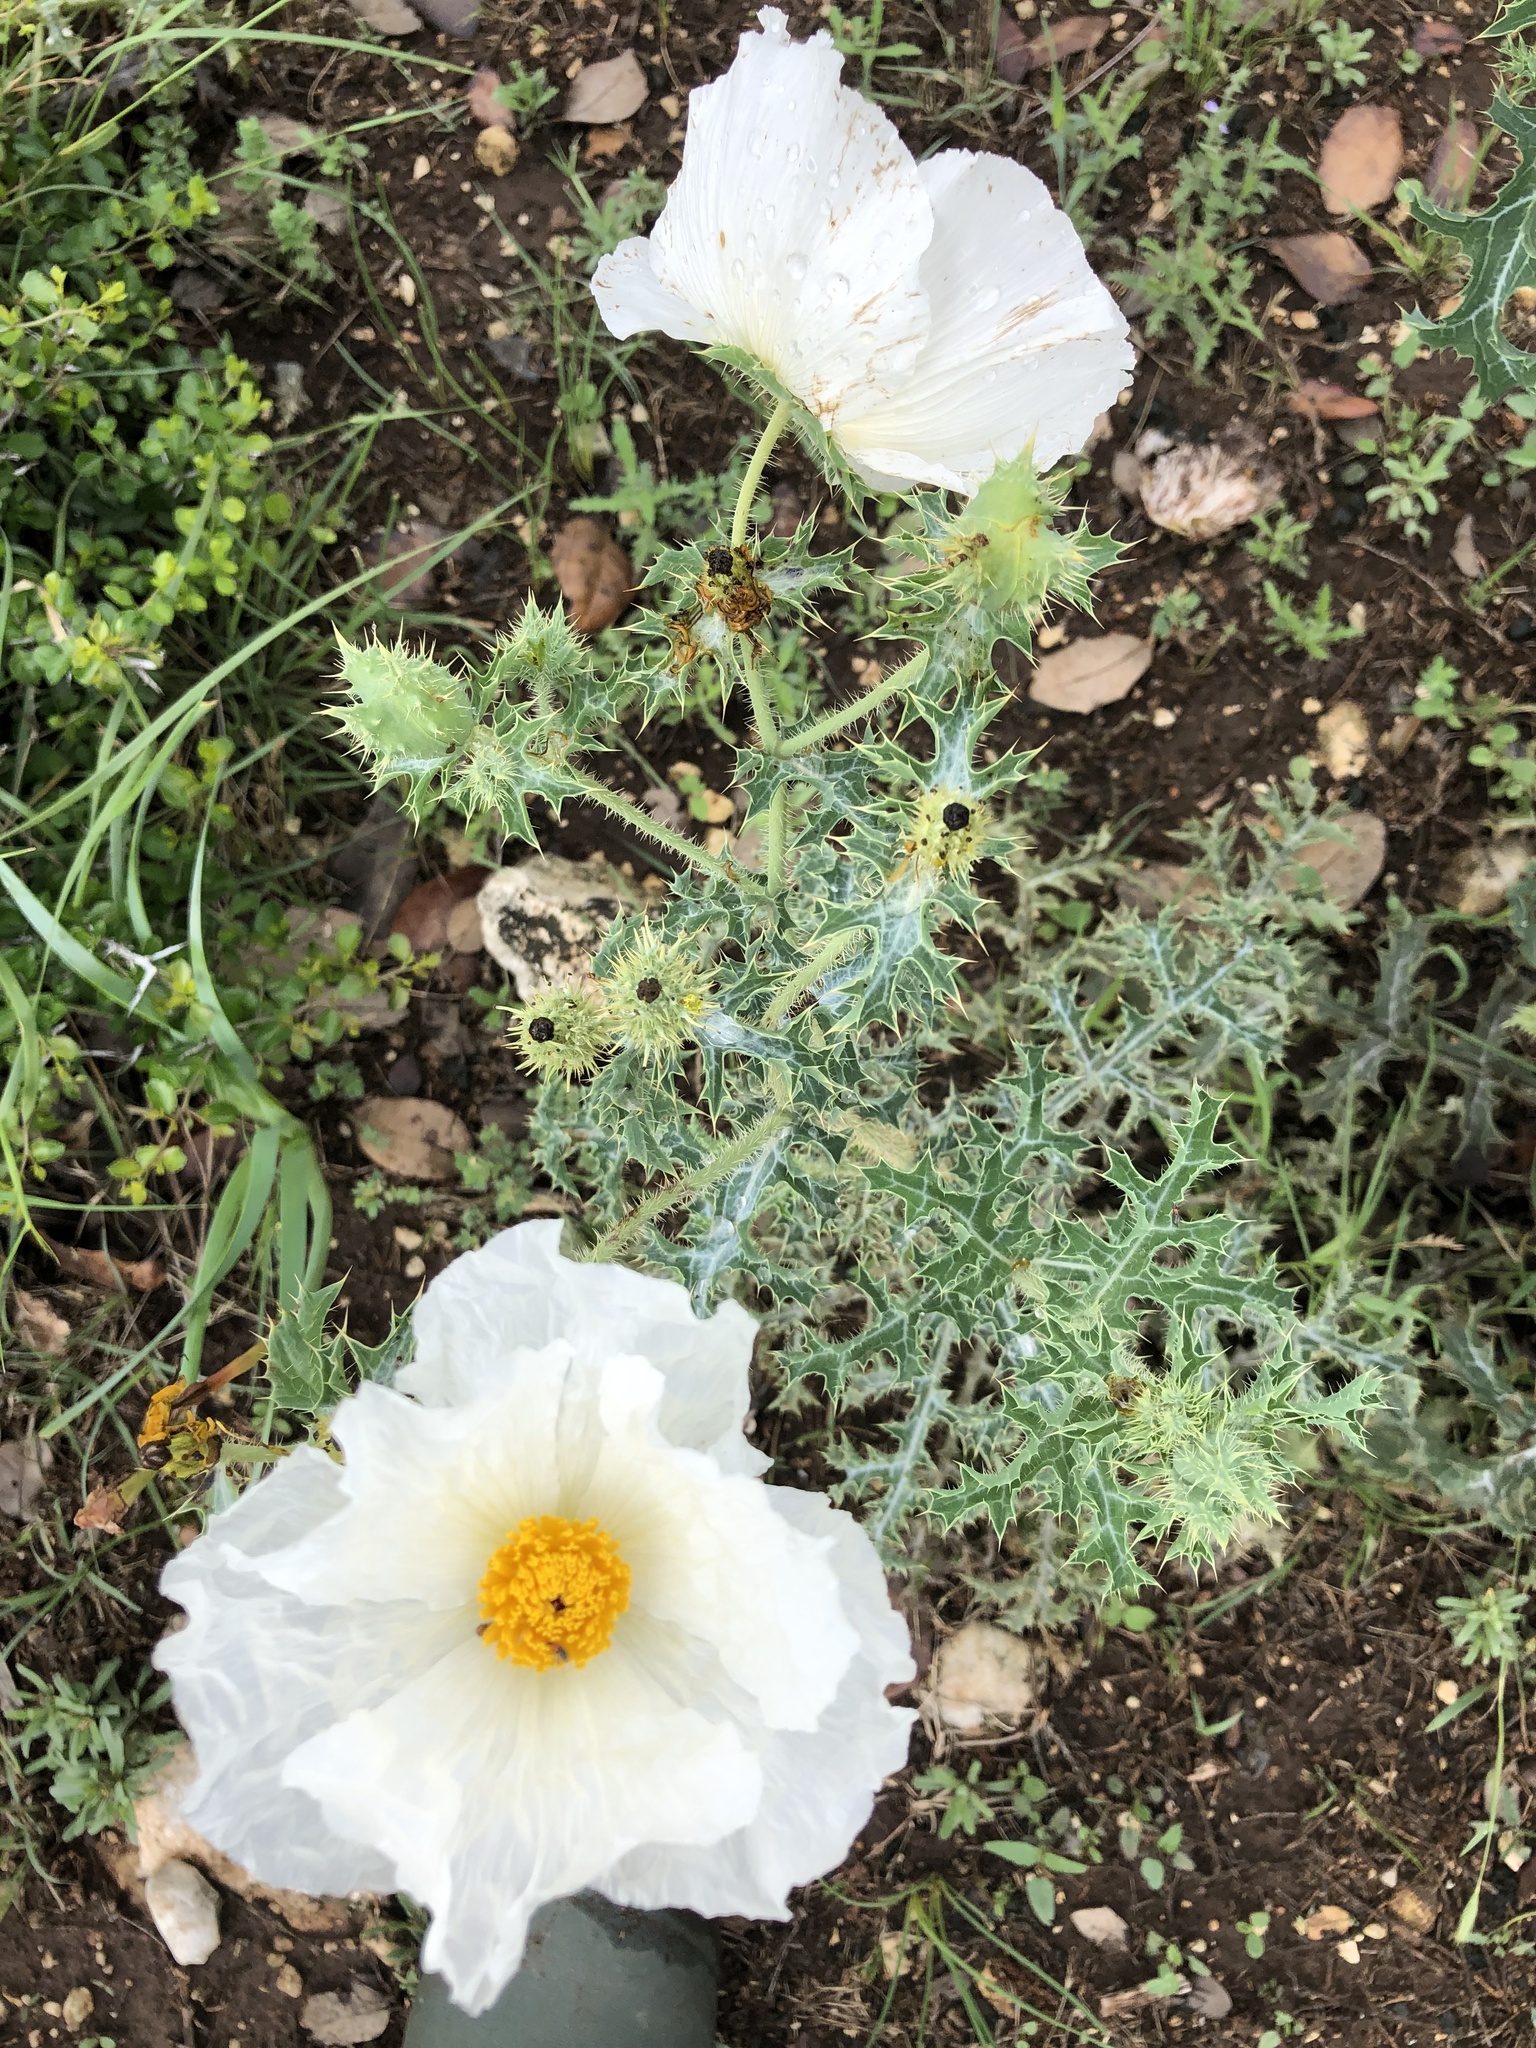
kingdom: Plantae
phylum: Tracheophyta
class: Magnoliopsida
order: Ranunculales
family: Papaveraceae
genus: Argemone
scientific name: Argemone aurantiaca
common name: Texas prickly-poppy
